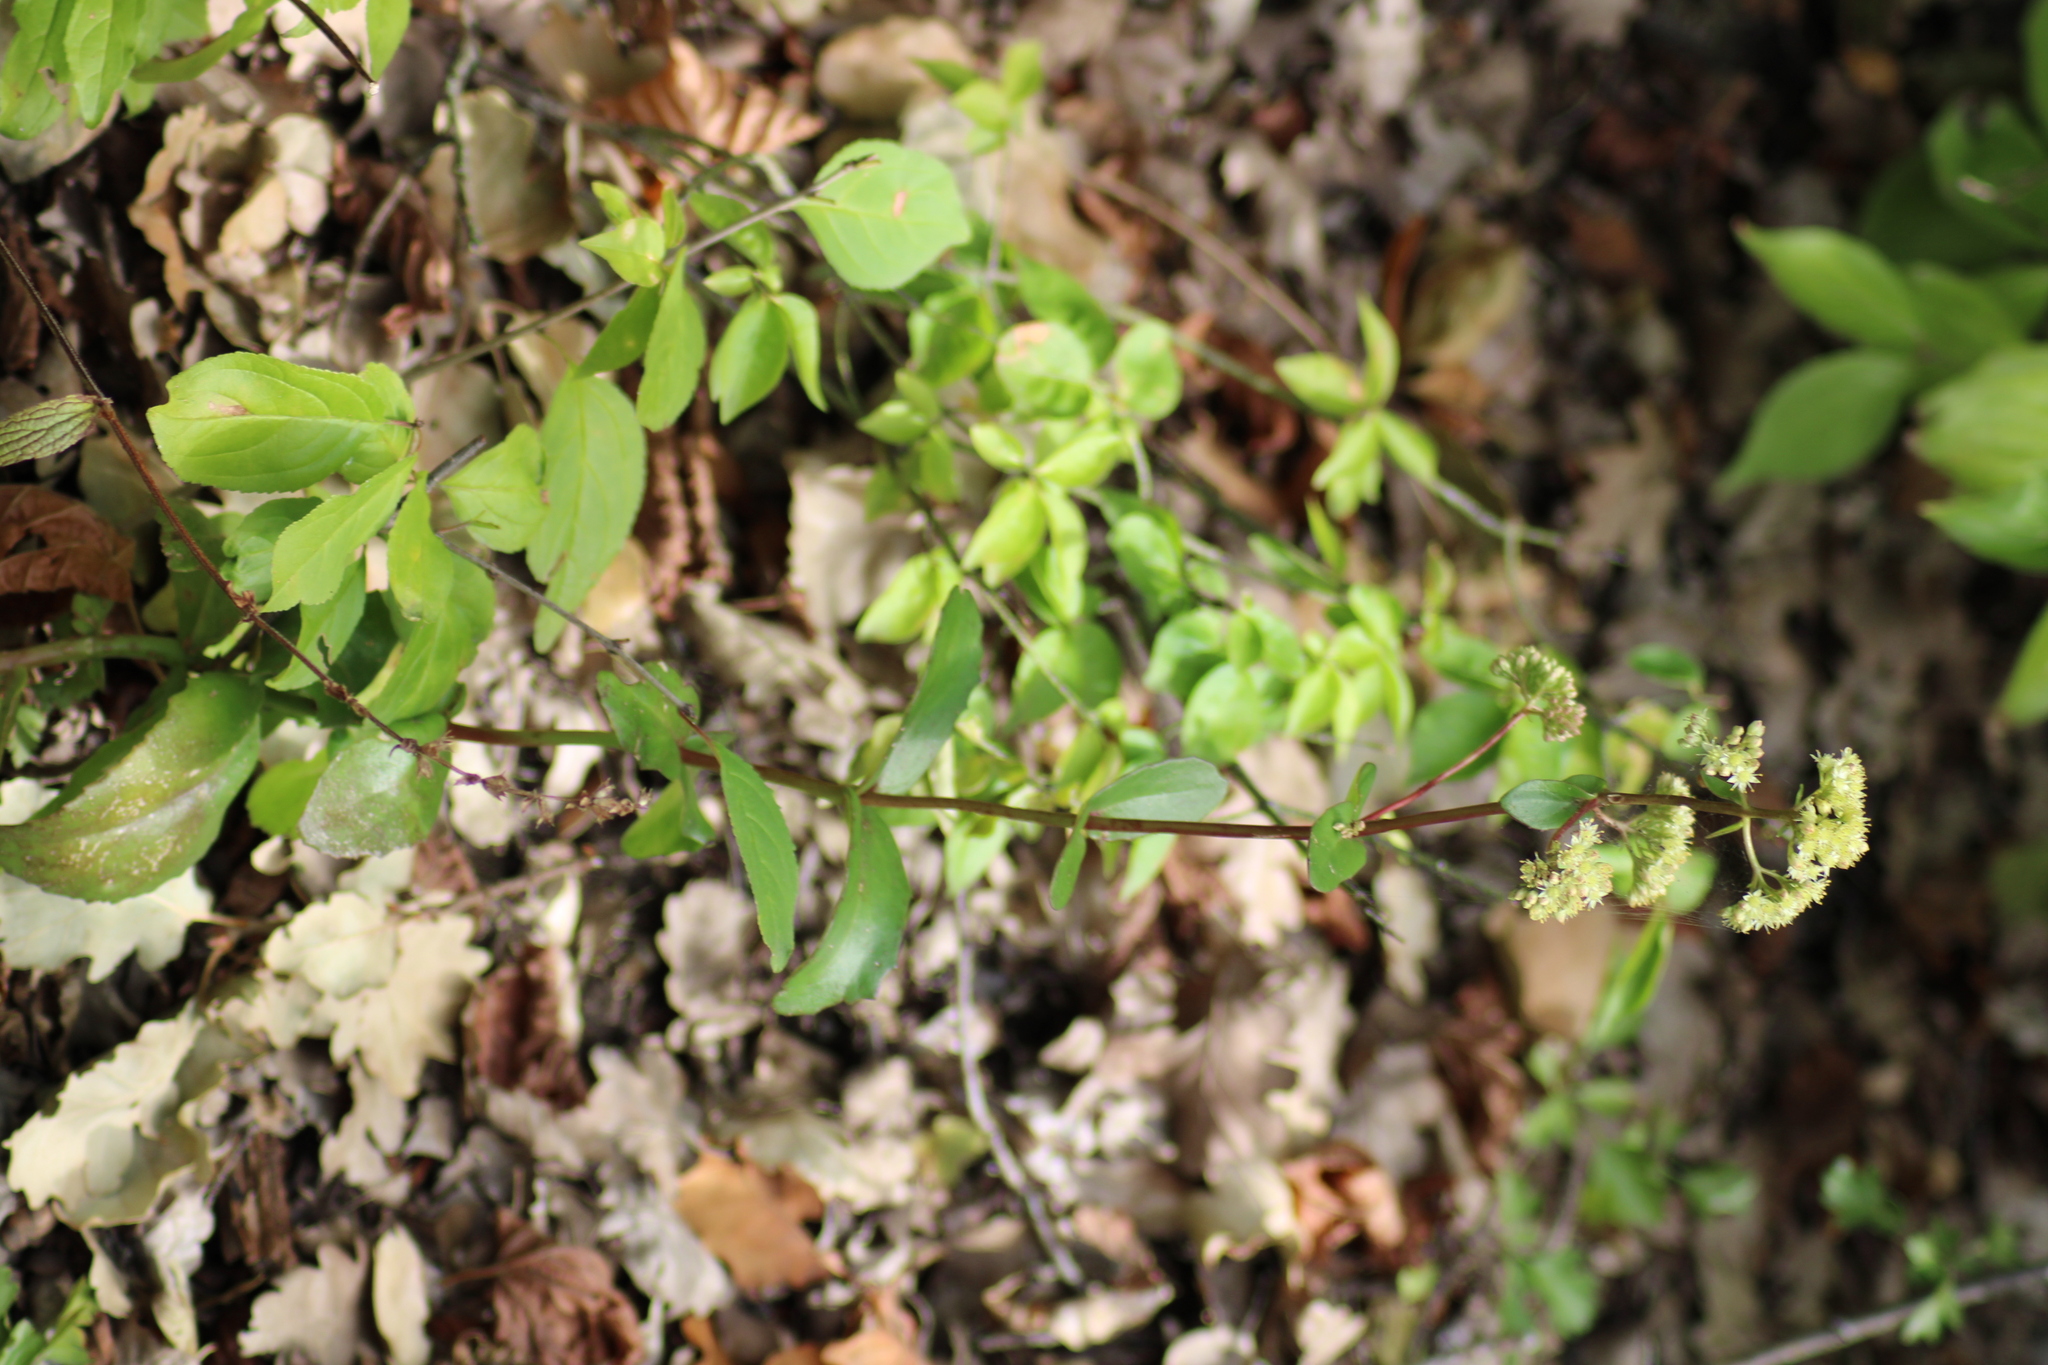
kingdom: Plantae
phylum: Tracheophyta
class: Magnoliopsida
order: Saxifragales
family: Crassulaceae
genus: Hylotelephium
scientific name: Hylotelephium maximum
